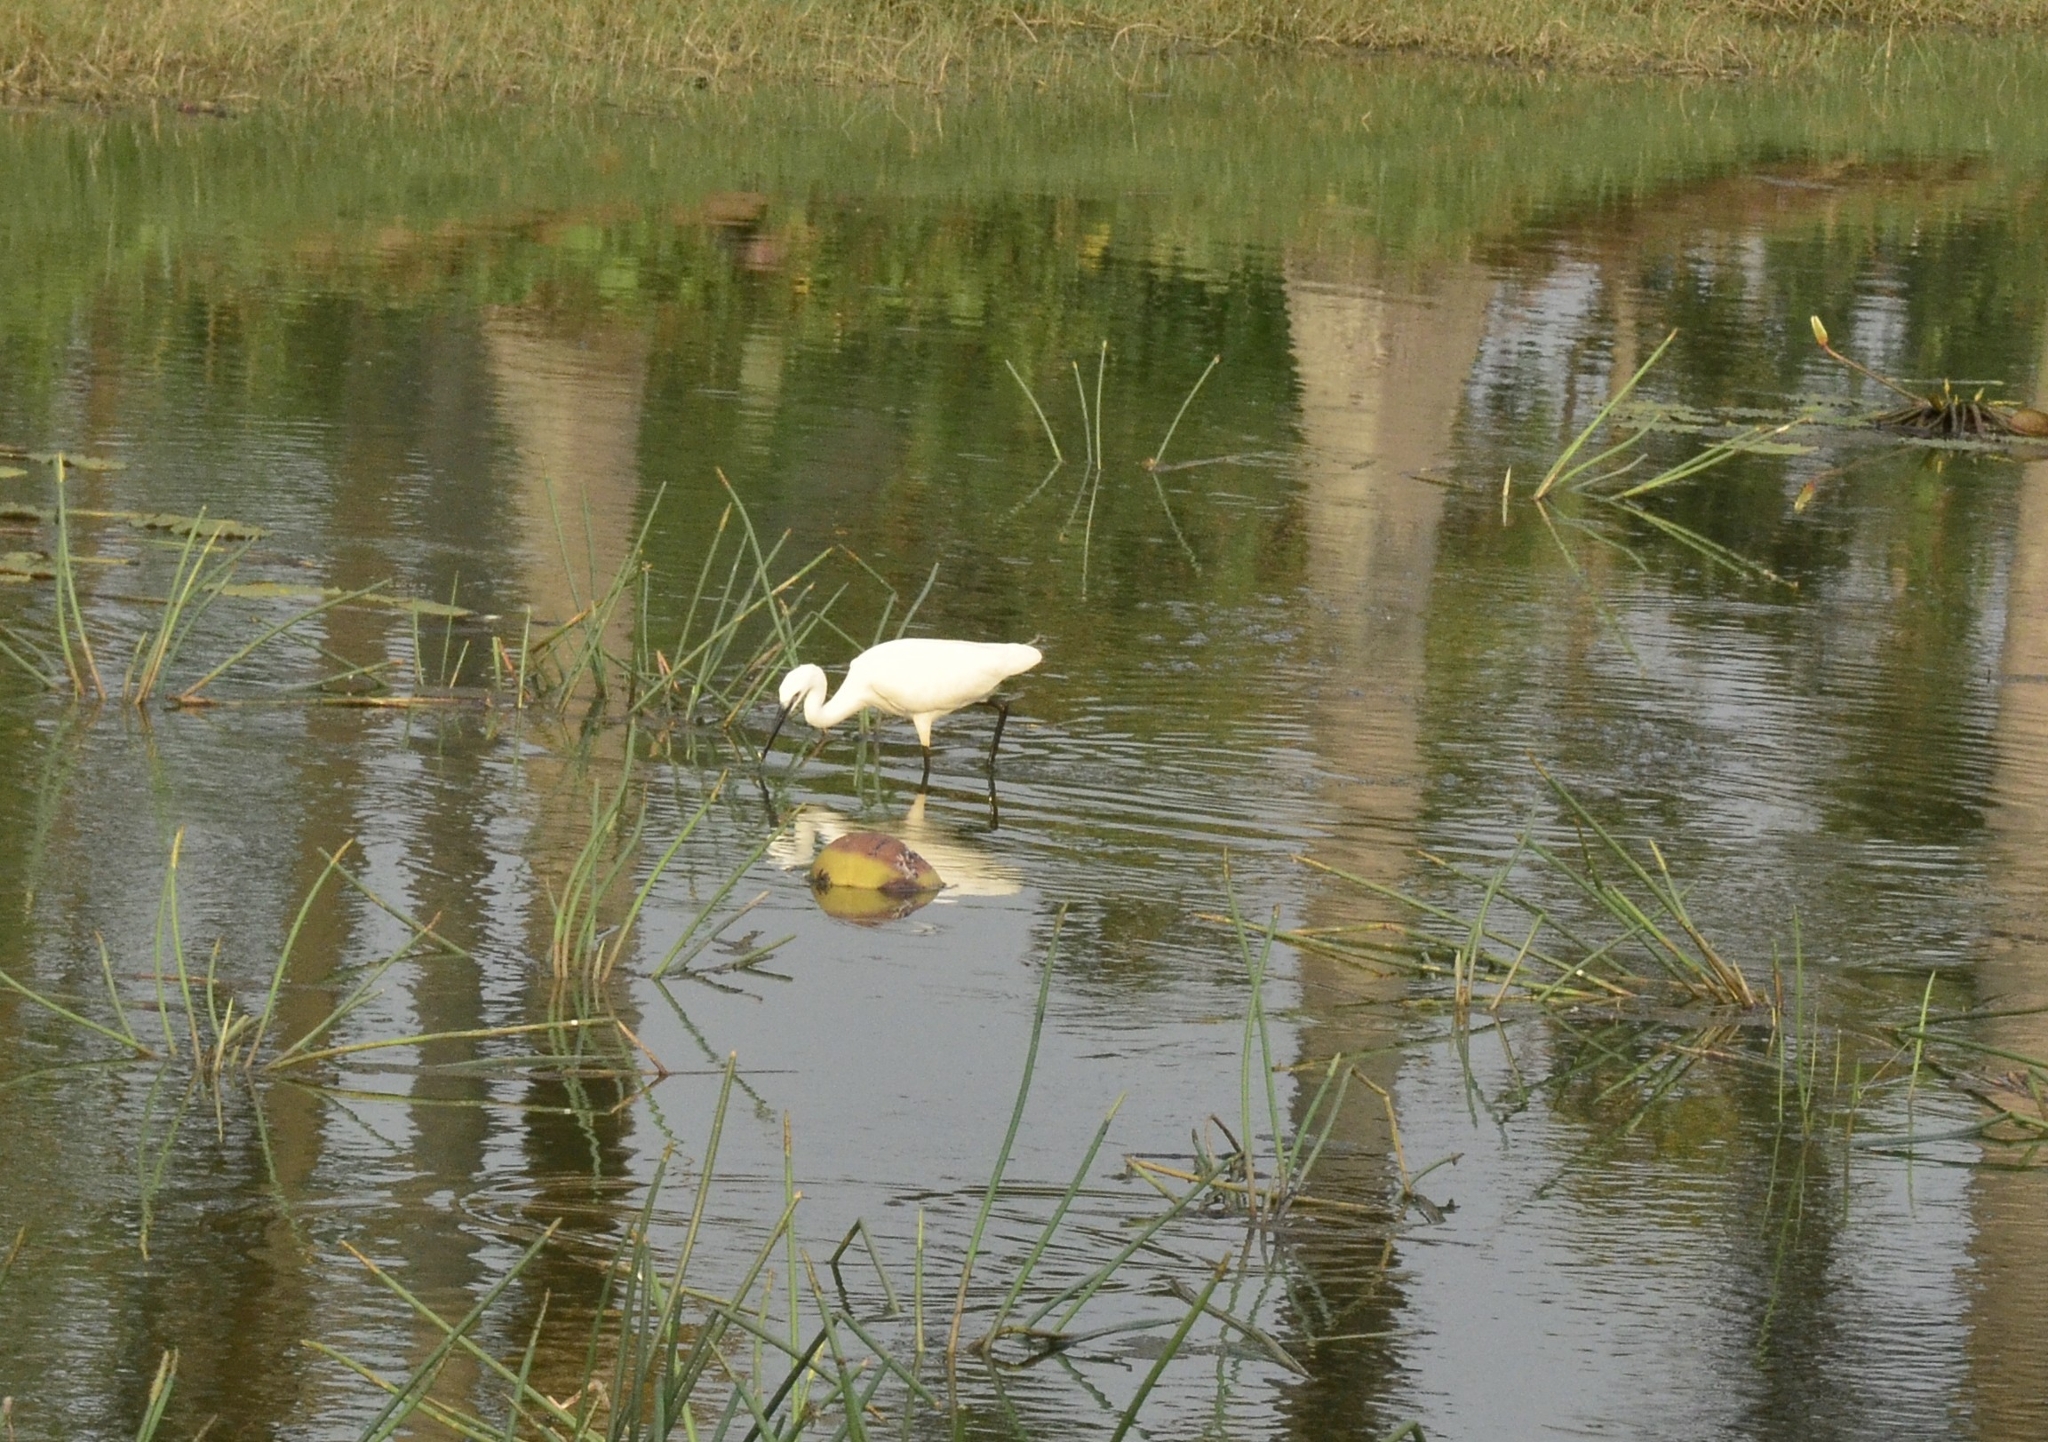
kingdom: Animalia
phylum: Chordata
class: Aves
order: Pelecaniformes
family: Ardeidae
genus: Egretta
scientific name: Egretta garzetta
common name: Little egret
